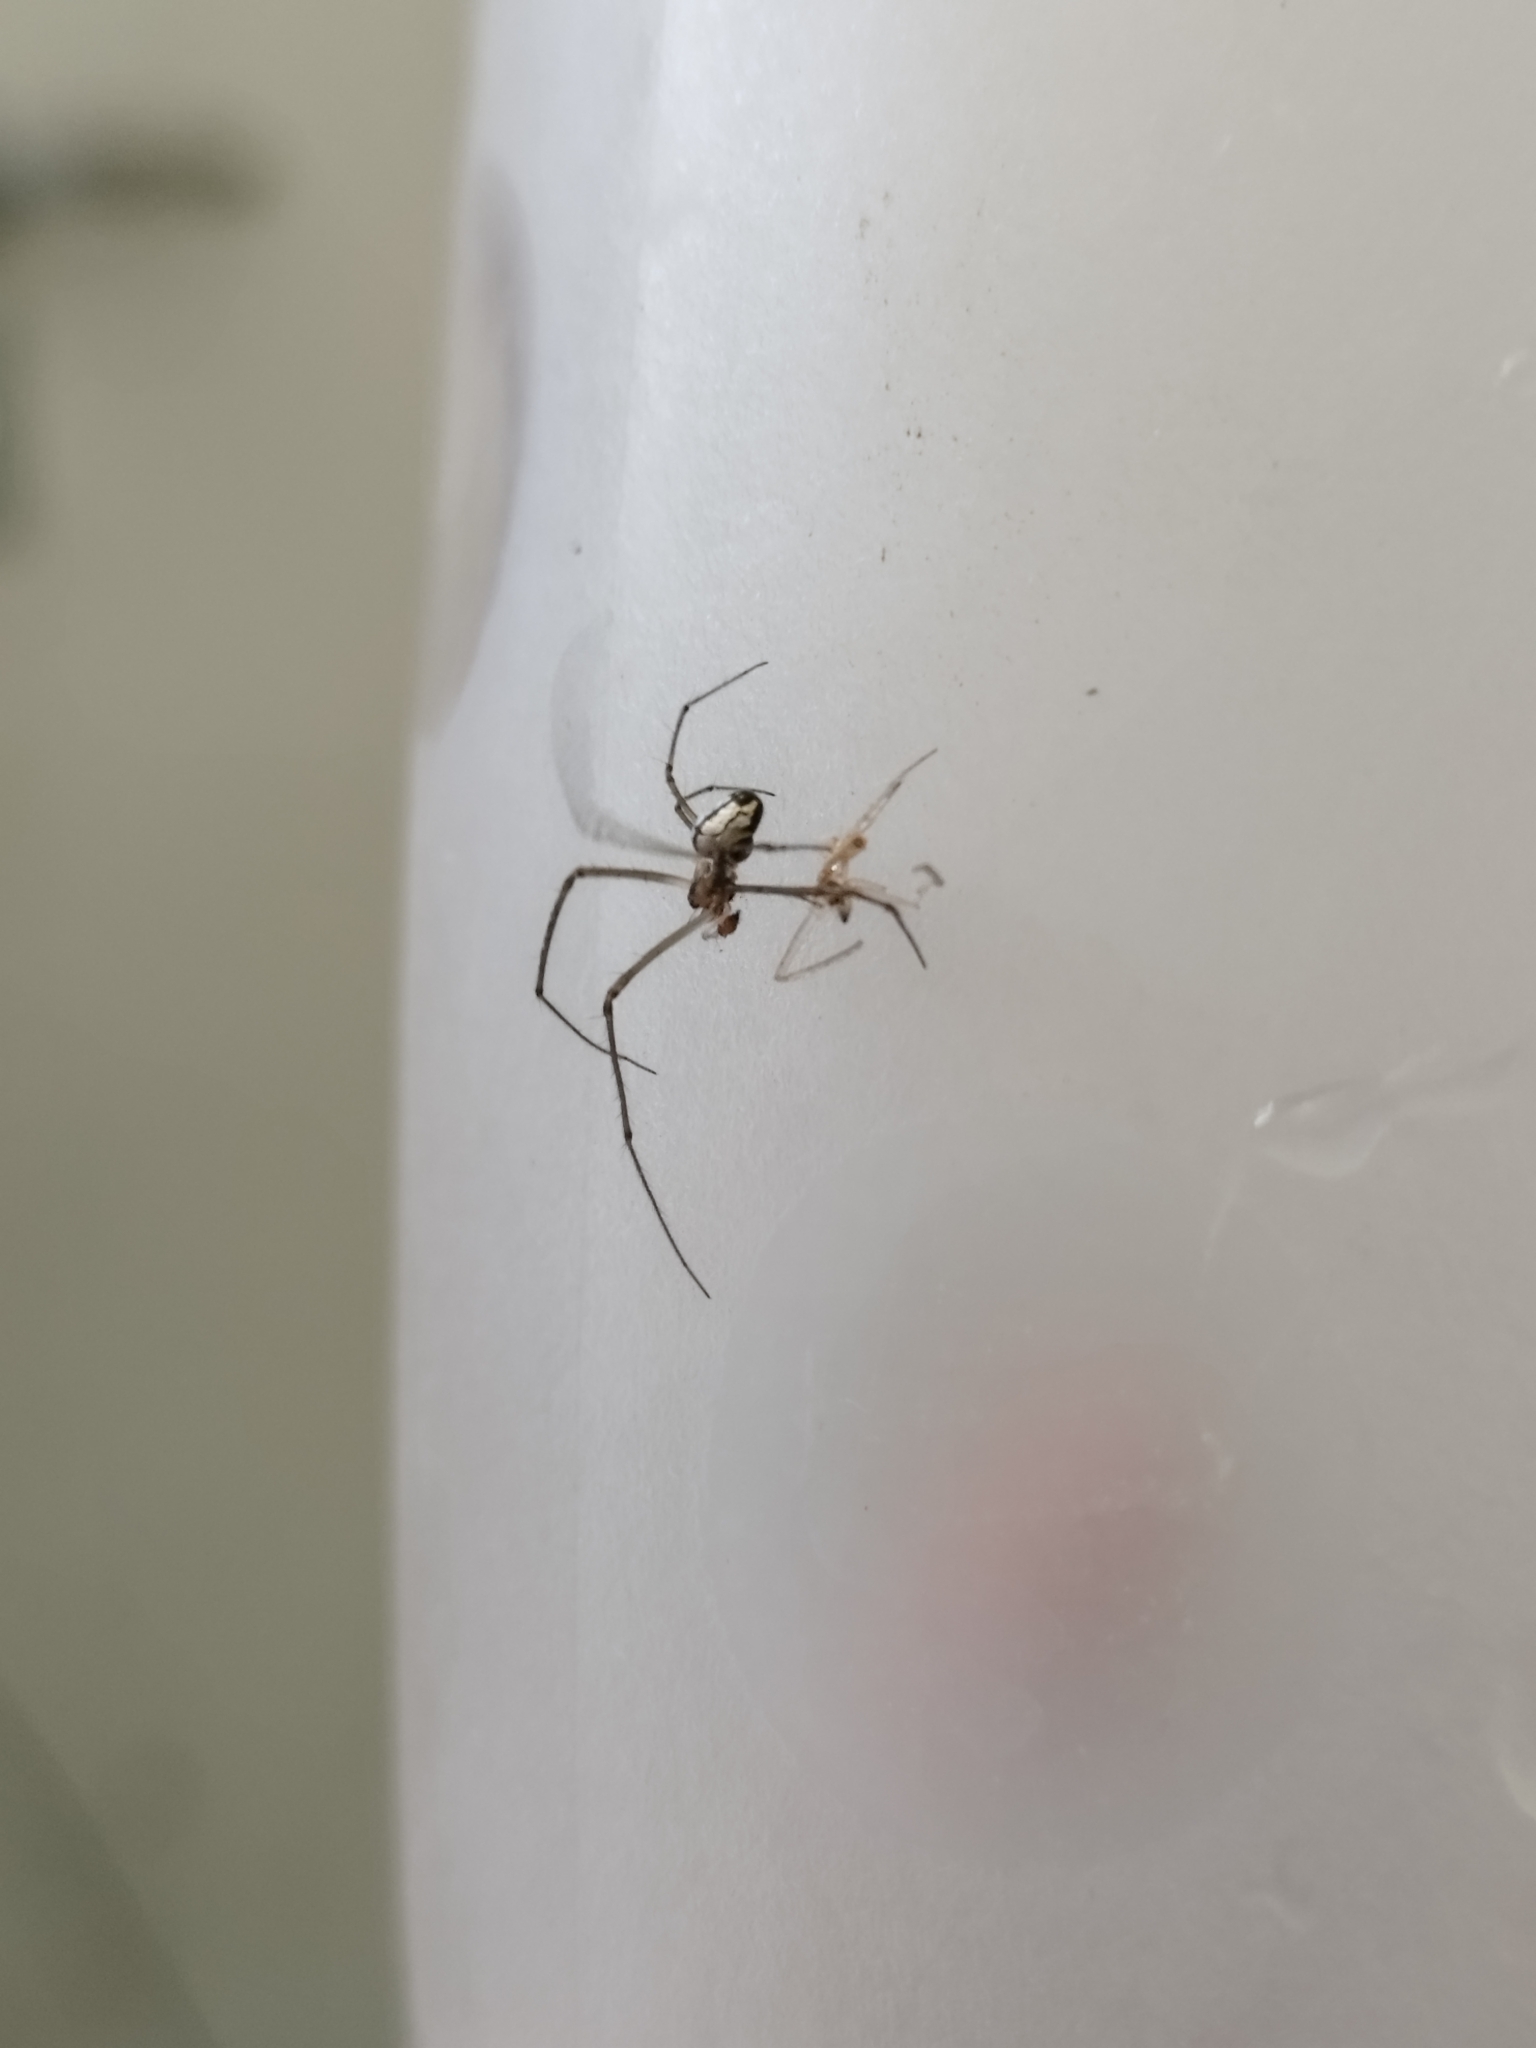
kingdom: Animalia
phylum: Arthropoda
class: Arachnida
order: Araneae
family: Tetragnathidae
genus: Leucauge
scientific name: Leucauge volupis
